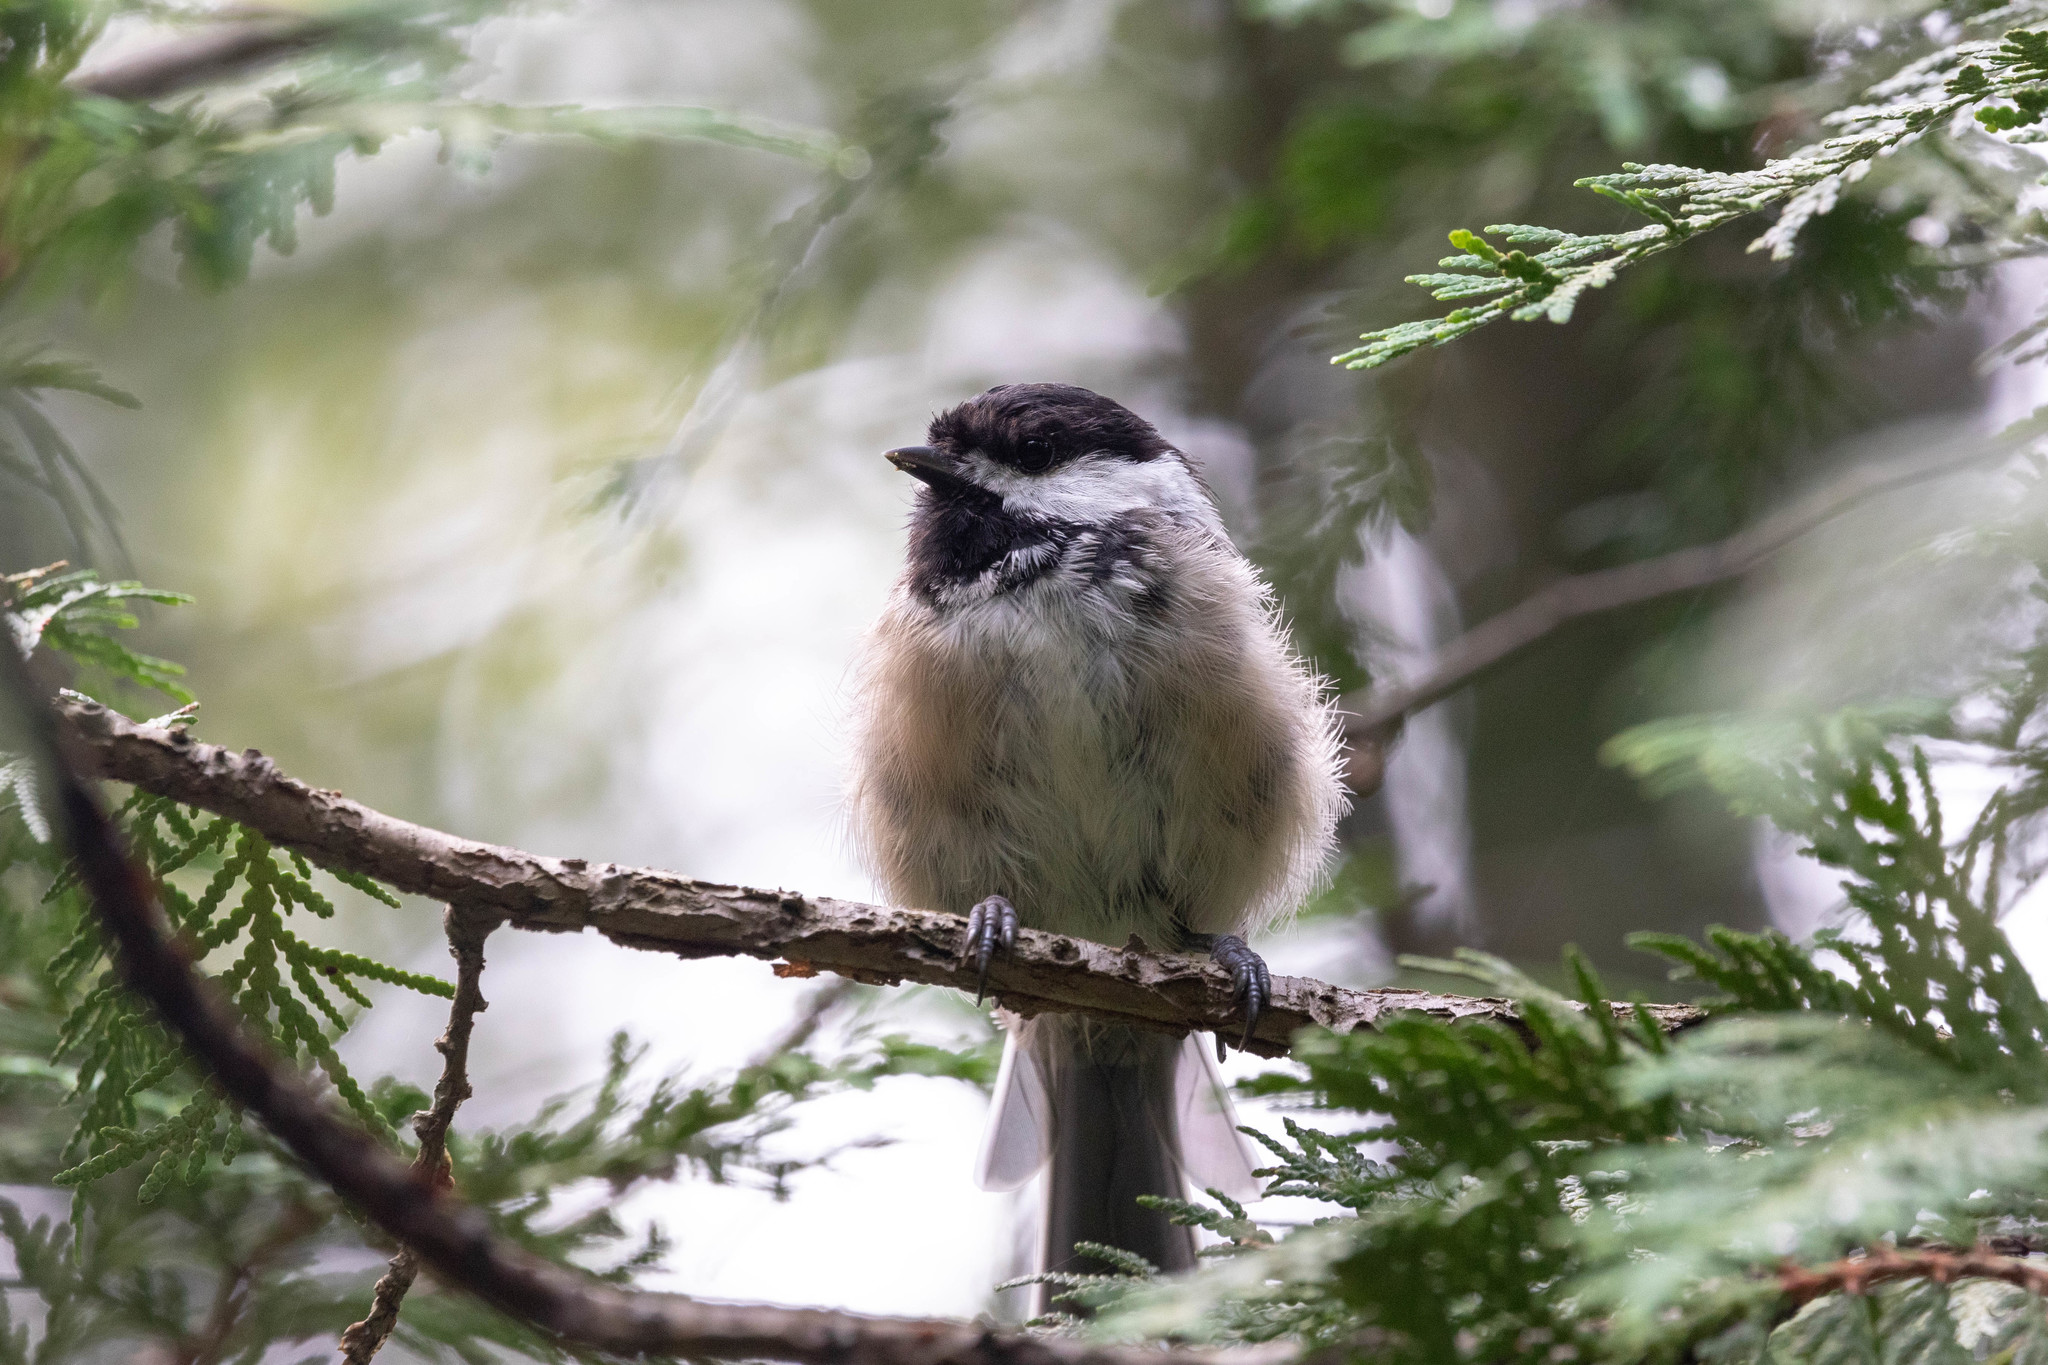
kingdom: Animalia
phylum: Chordata
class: Aves
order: Passeriformes
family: Paridae
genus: Poecile
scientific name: Poecile atricapillus
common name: Black-capped chickadee
